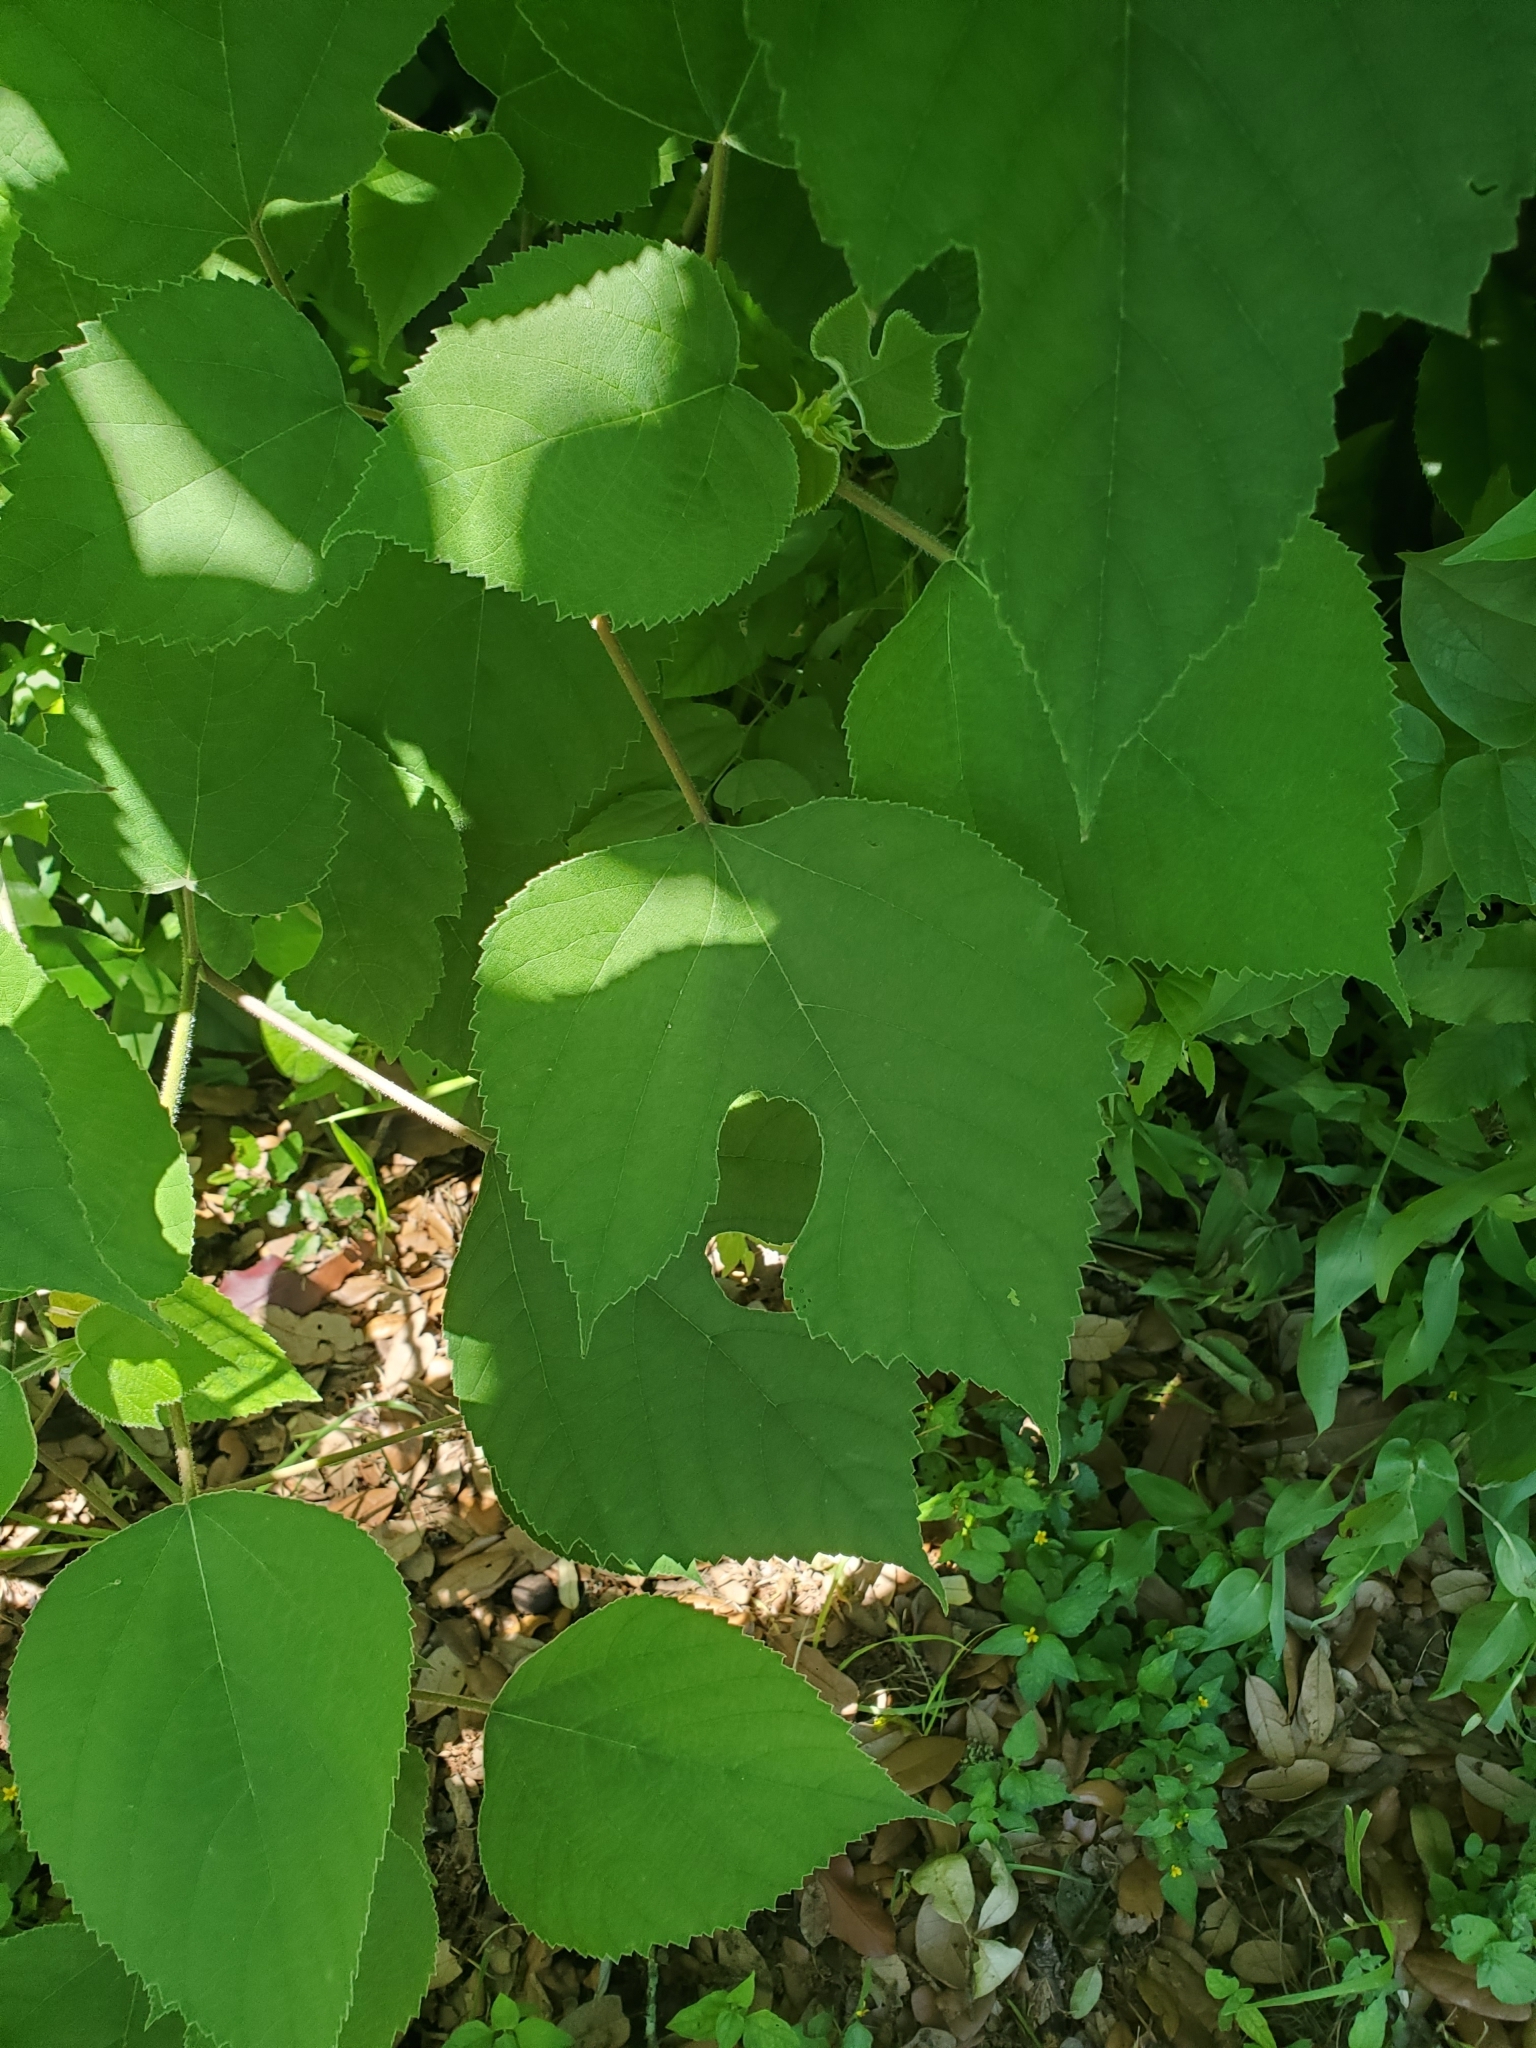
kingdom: Plantae
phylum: Tracheophyta
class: Magnoliopsida
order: Rosales
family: Moraceae
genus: Broussonetia
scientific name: Broussonetia papyrifera
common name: Paper mulberry
